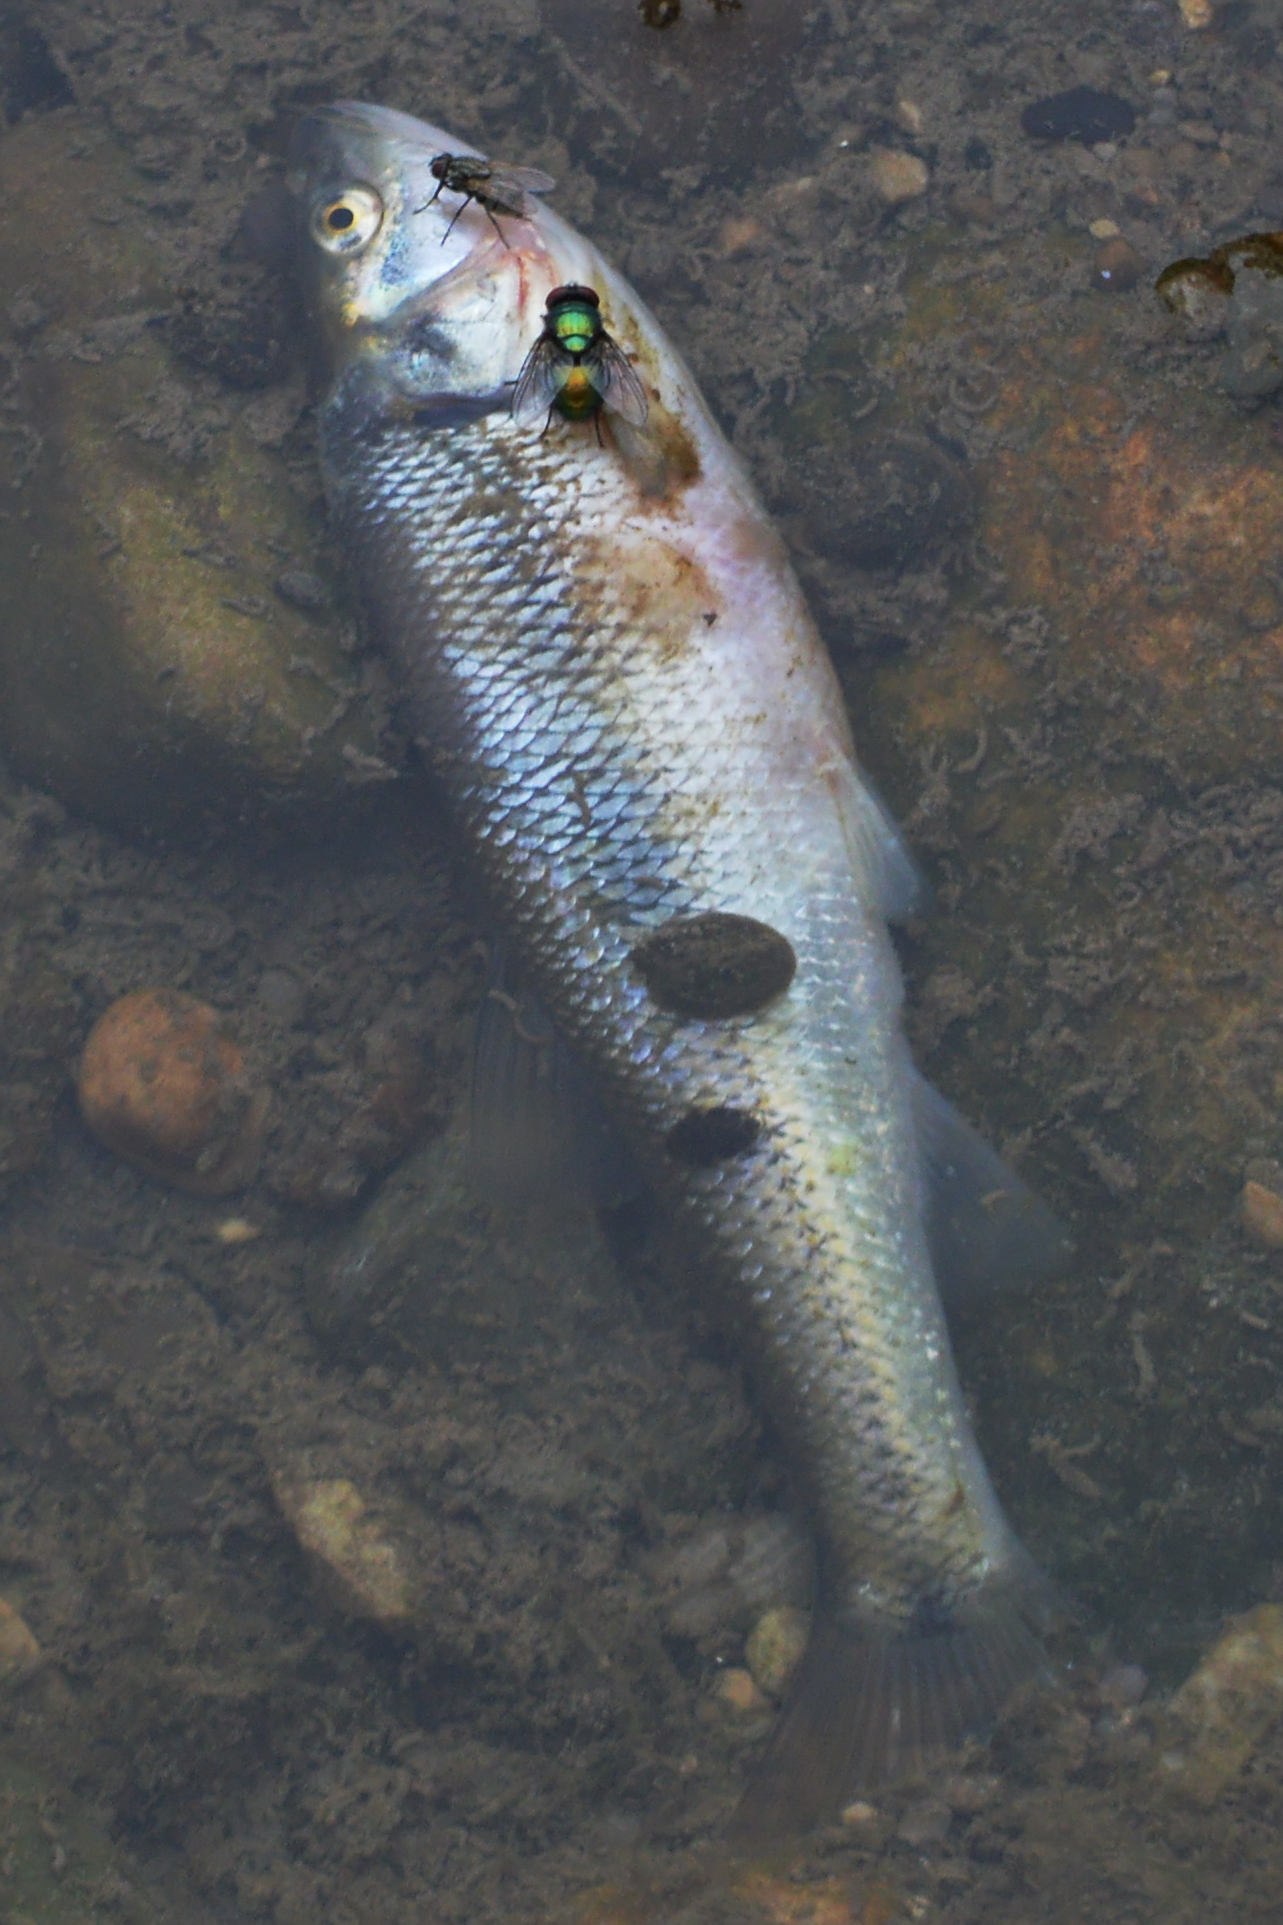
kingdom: Animalia
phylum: Chordata
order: Cypriniformes
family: Cyprinidae
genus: Semotilus
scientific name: Semotilus atromaculatus
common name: Creek chub
